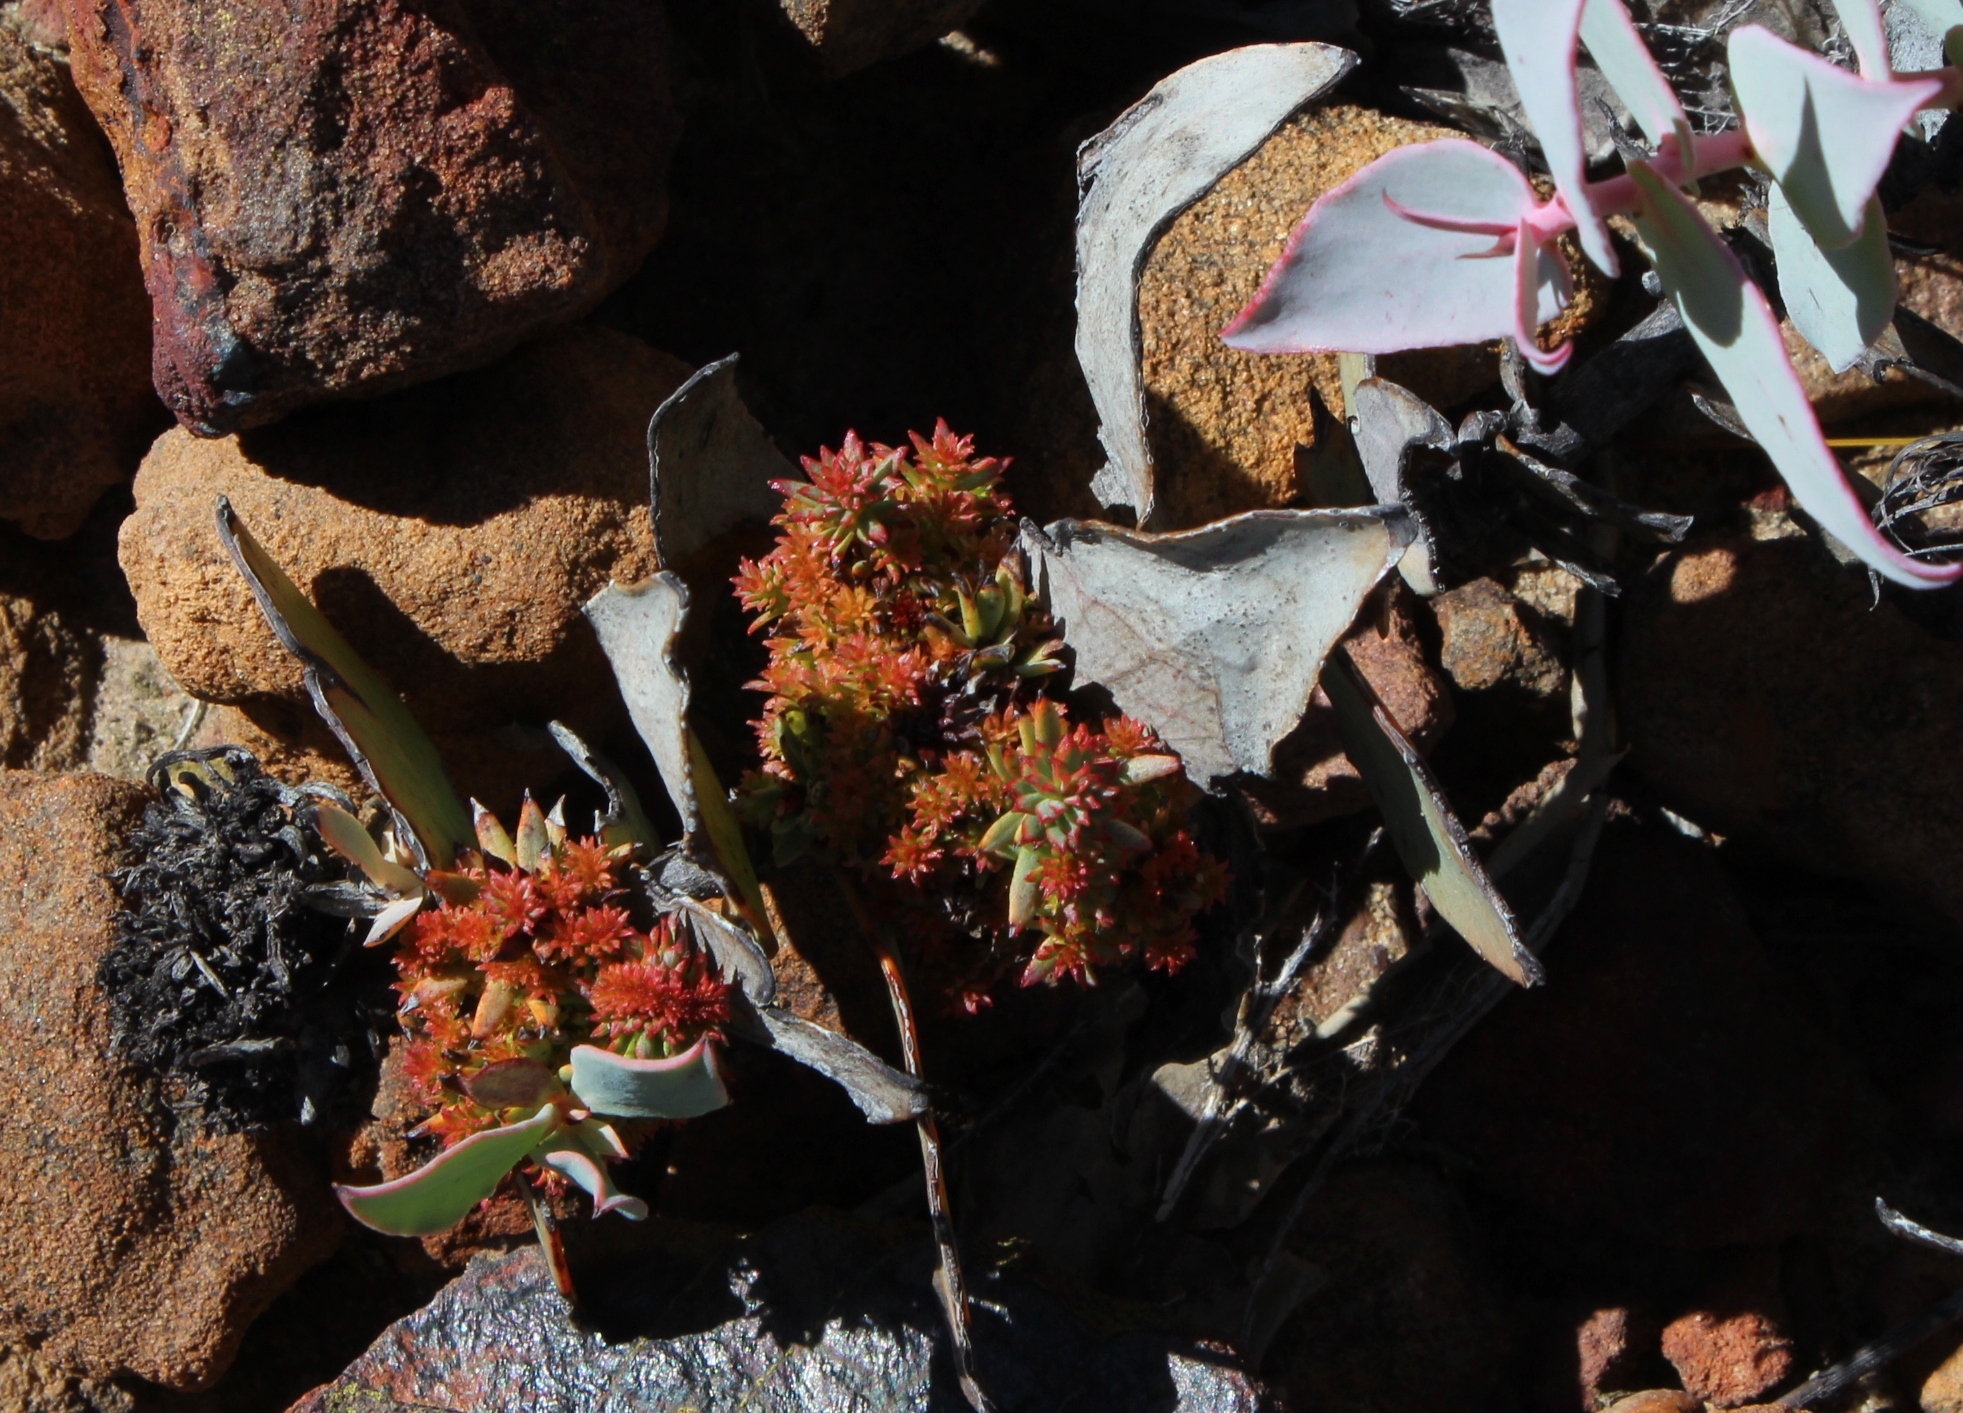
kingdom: Bacteria
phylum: Firmicutes
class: Bacilli
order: Acholeplasmatales
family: Acholeplasmataceae
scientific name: Acholeplasmataceae
